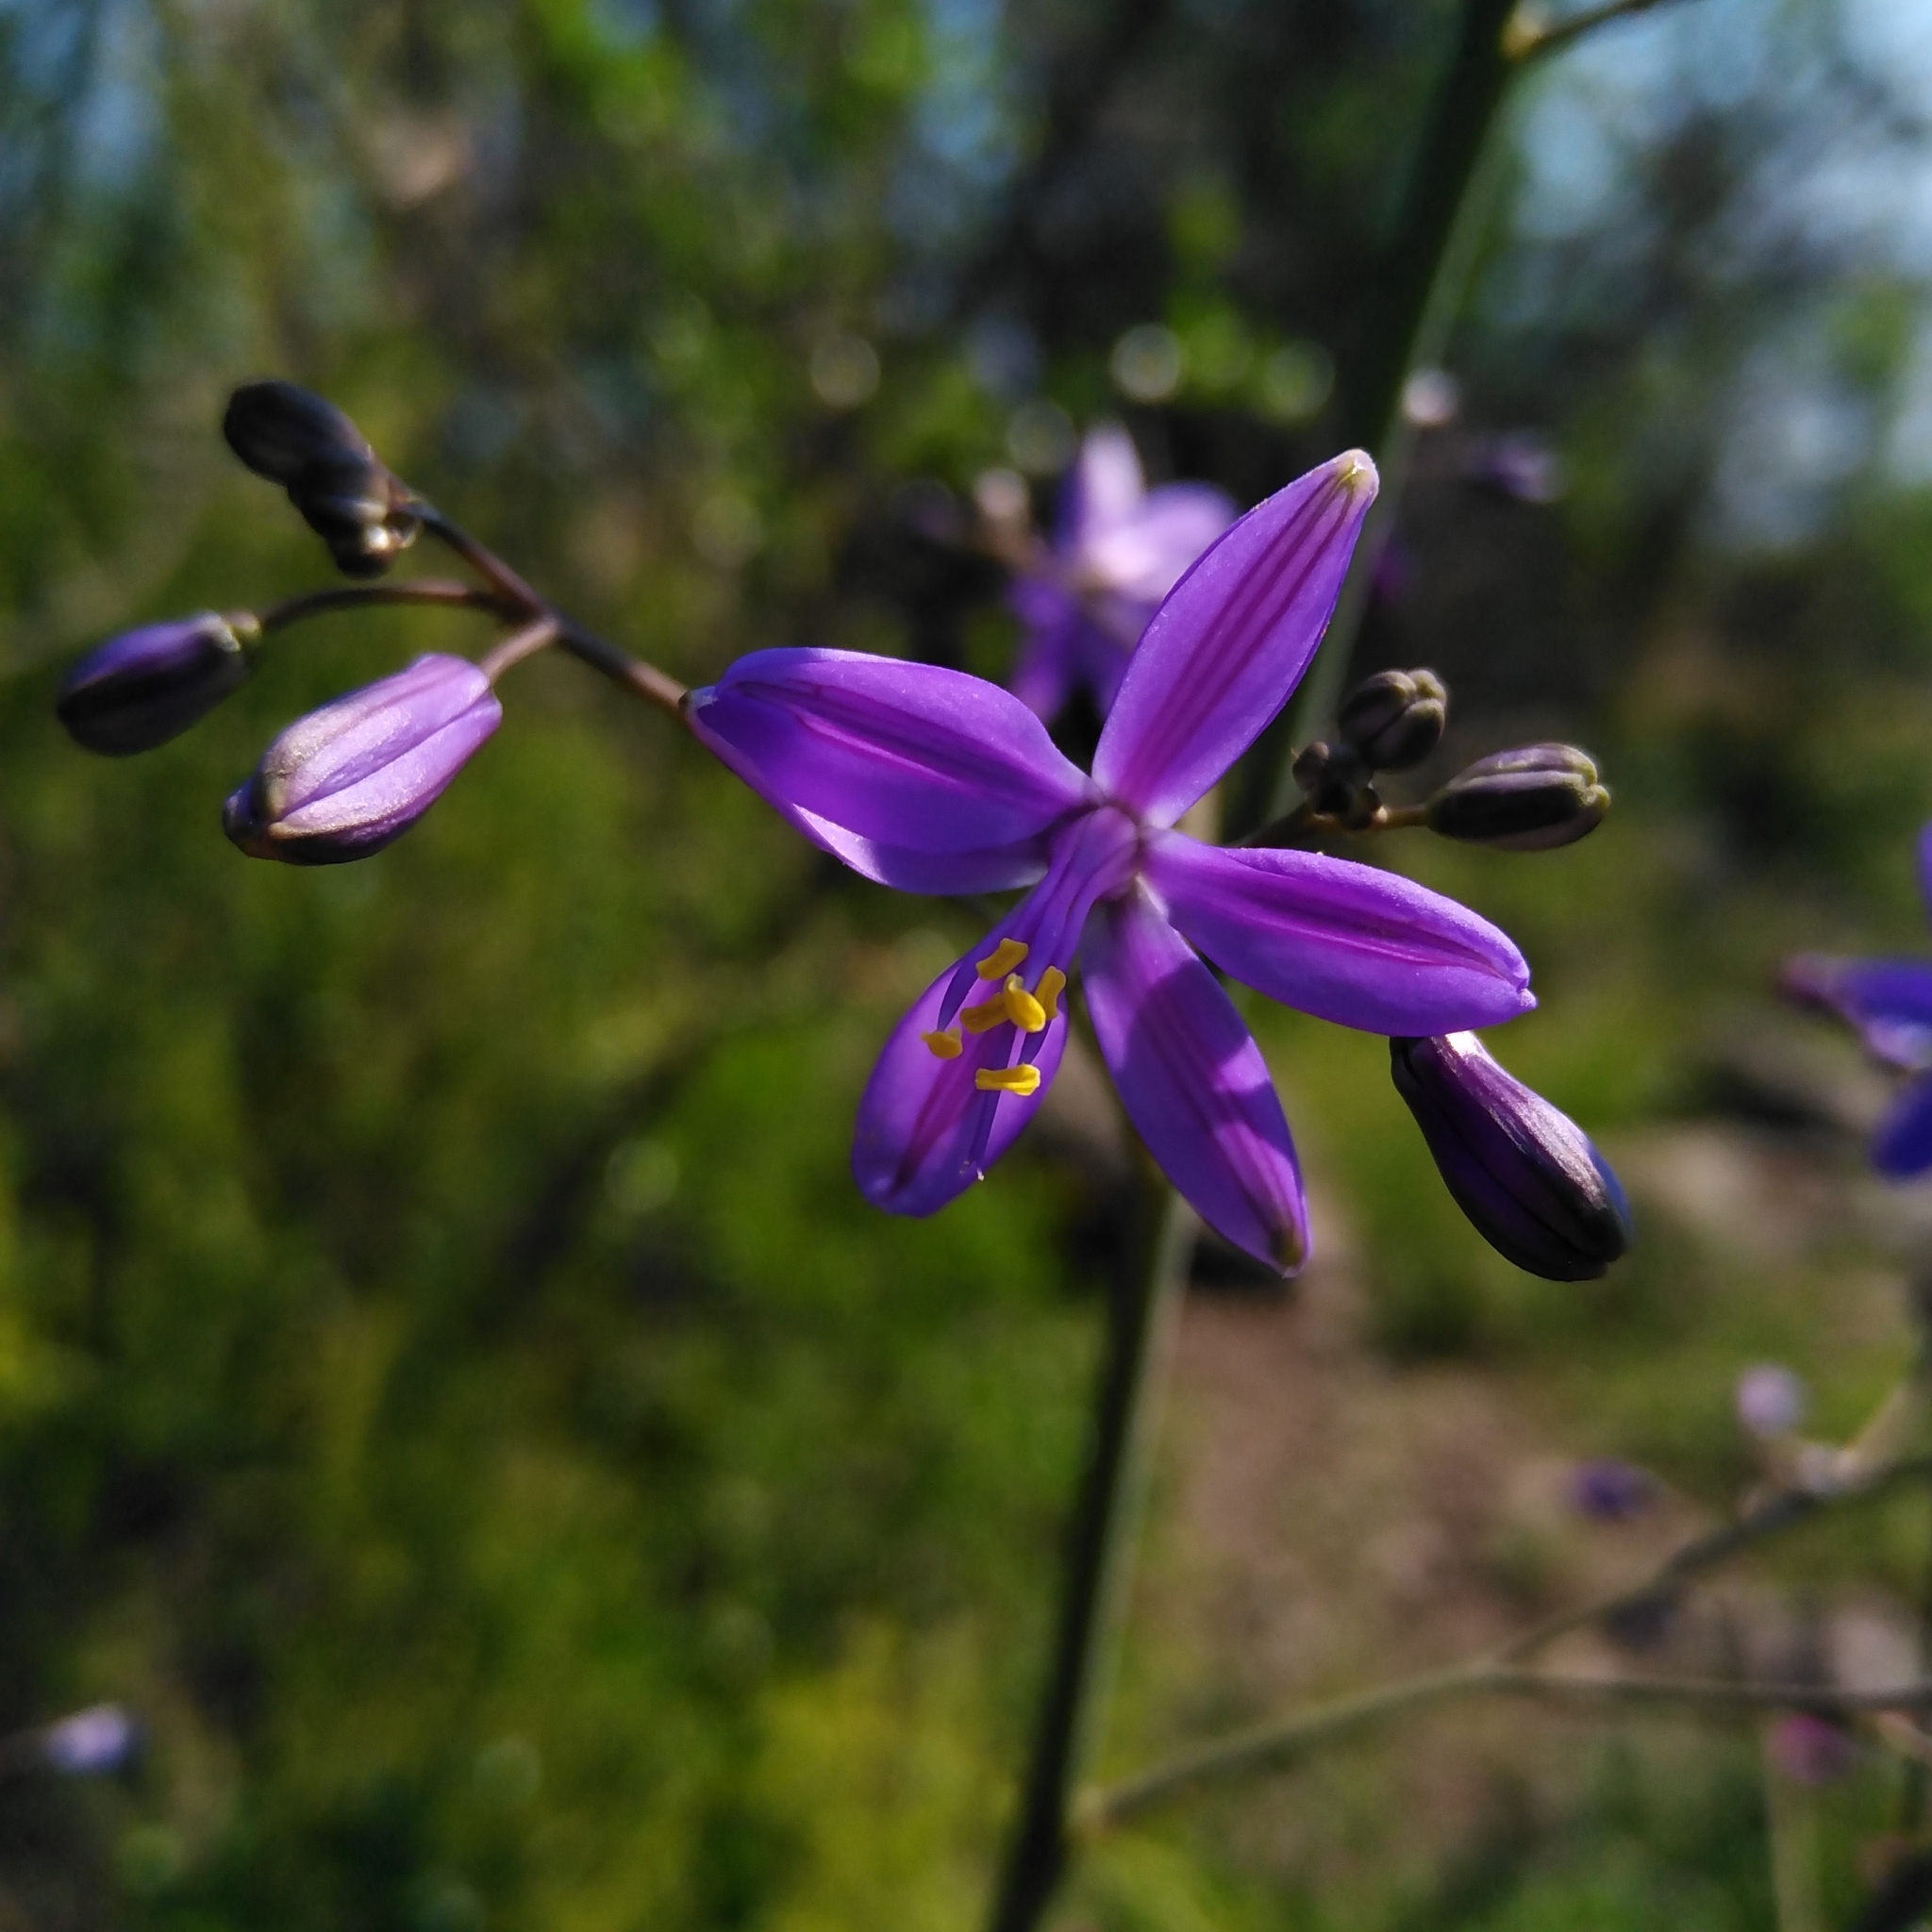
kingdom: Plantae
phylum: Tracheophyta
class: Liliopsida
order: Asparagales
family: Asphodelaceae
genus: Pasithea
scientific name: Pasithea caerulea
